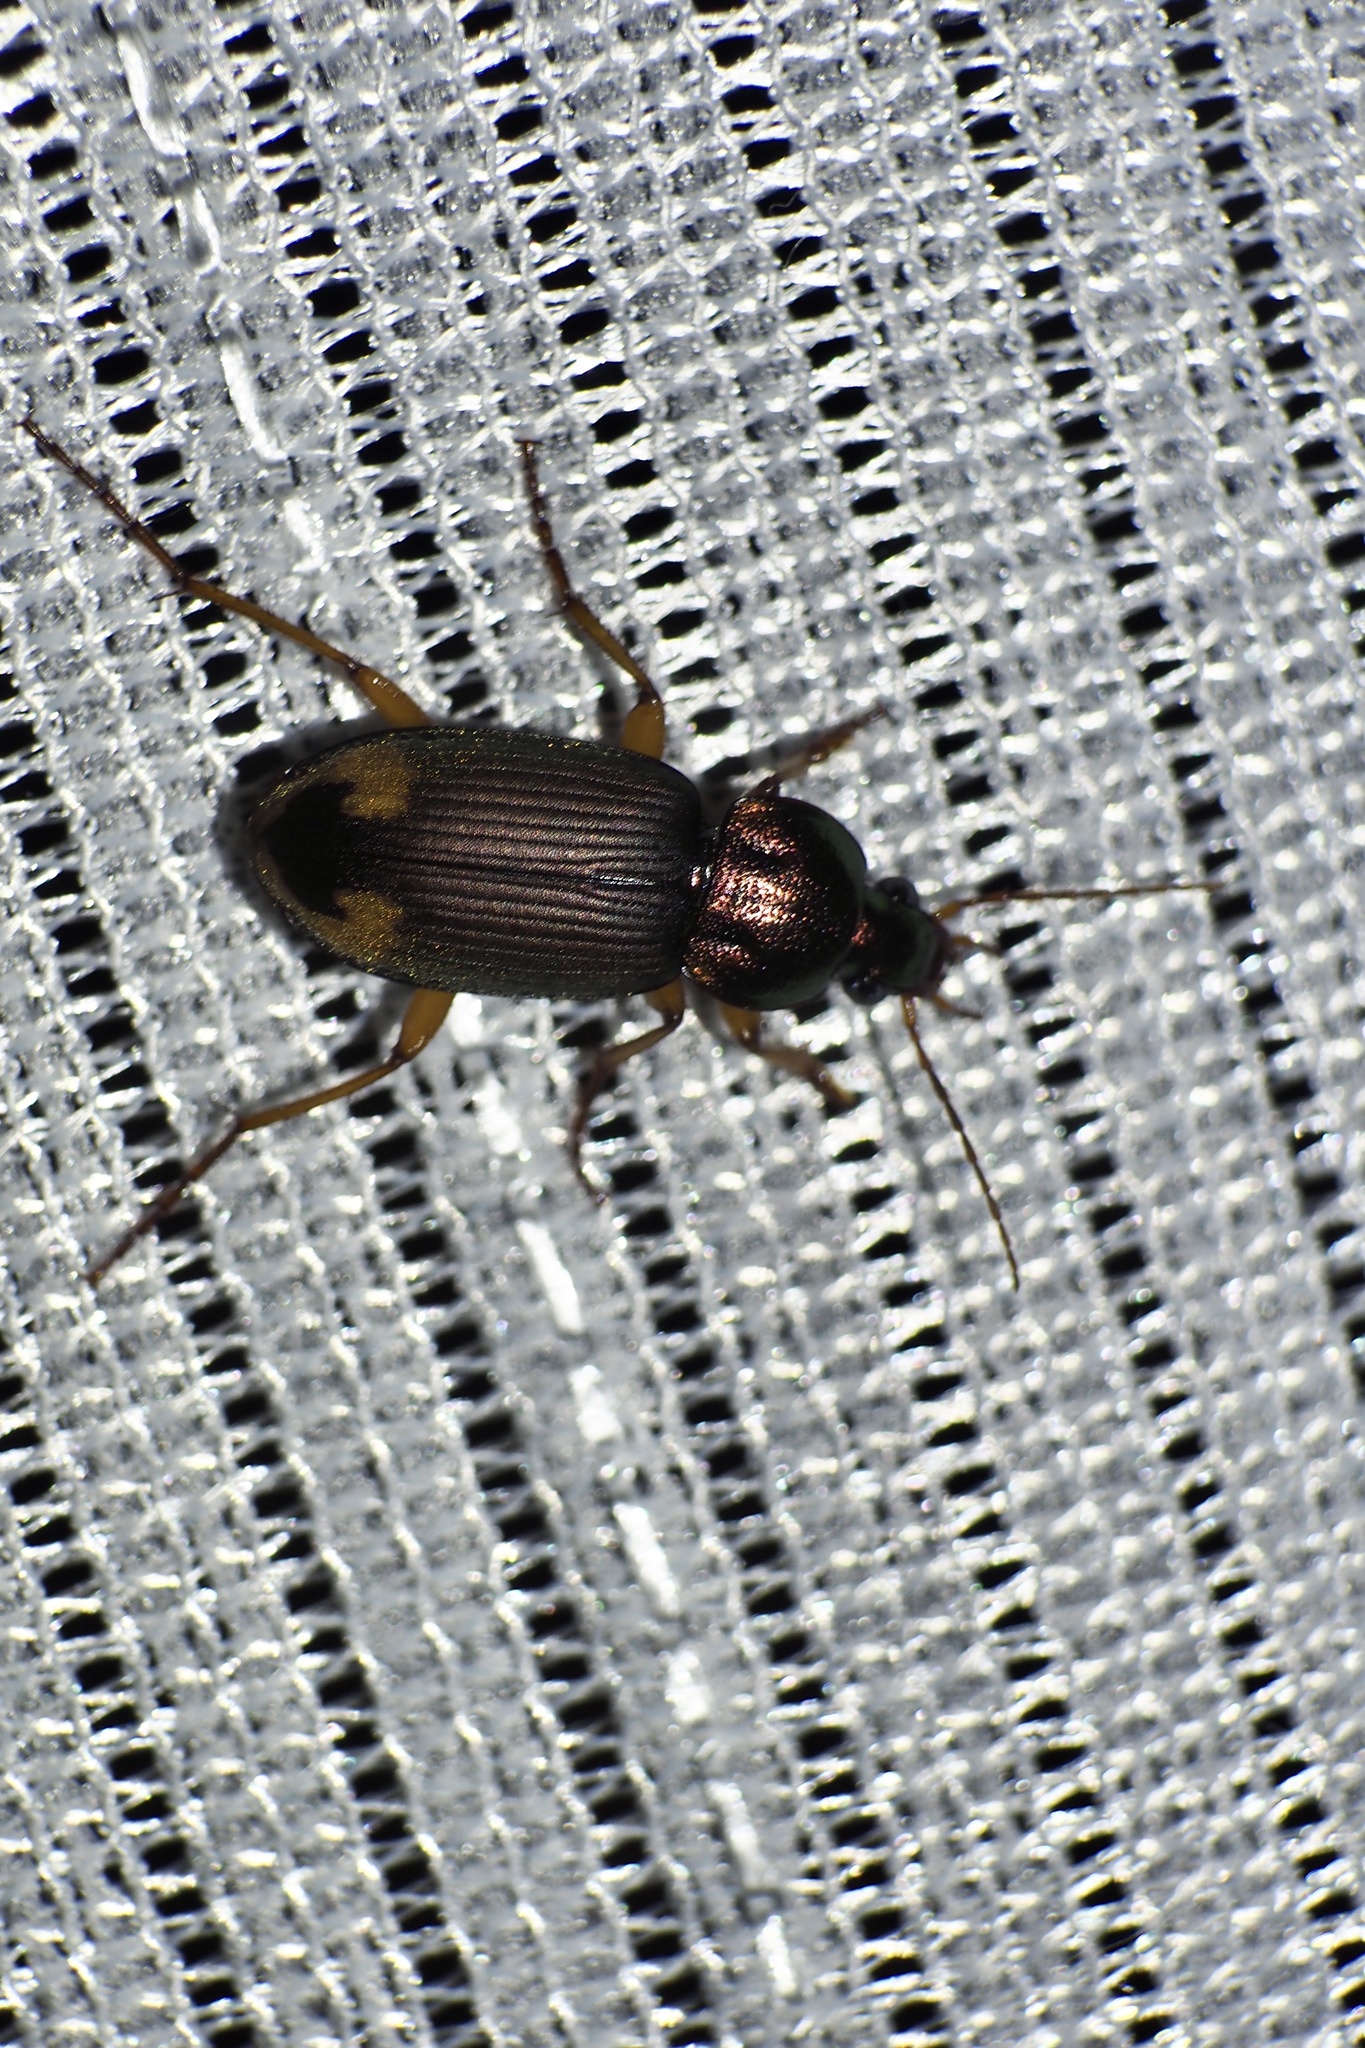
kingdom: Animalia
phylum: Arthropoda
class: Insecta
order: Coleoptera
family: Carabidae
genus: Chlaenius
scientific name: Chlaenius virgulifer
